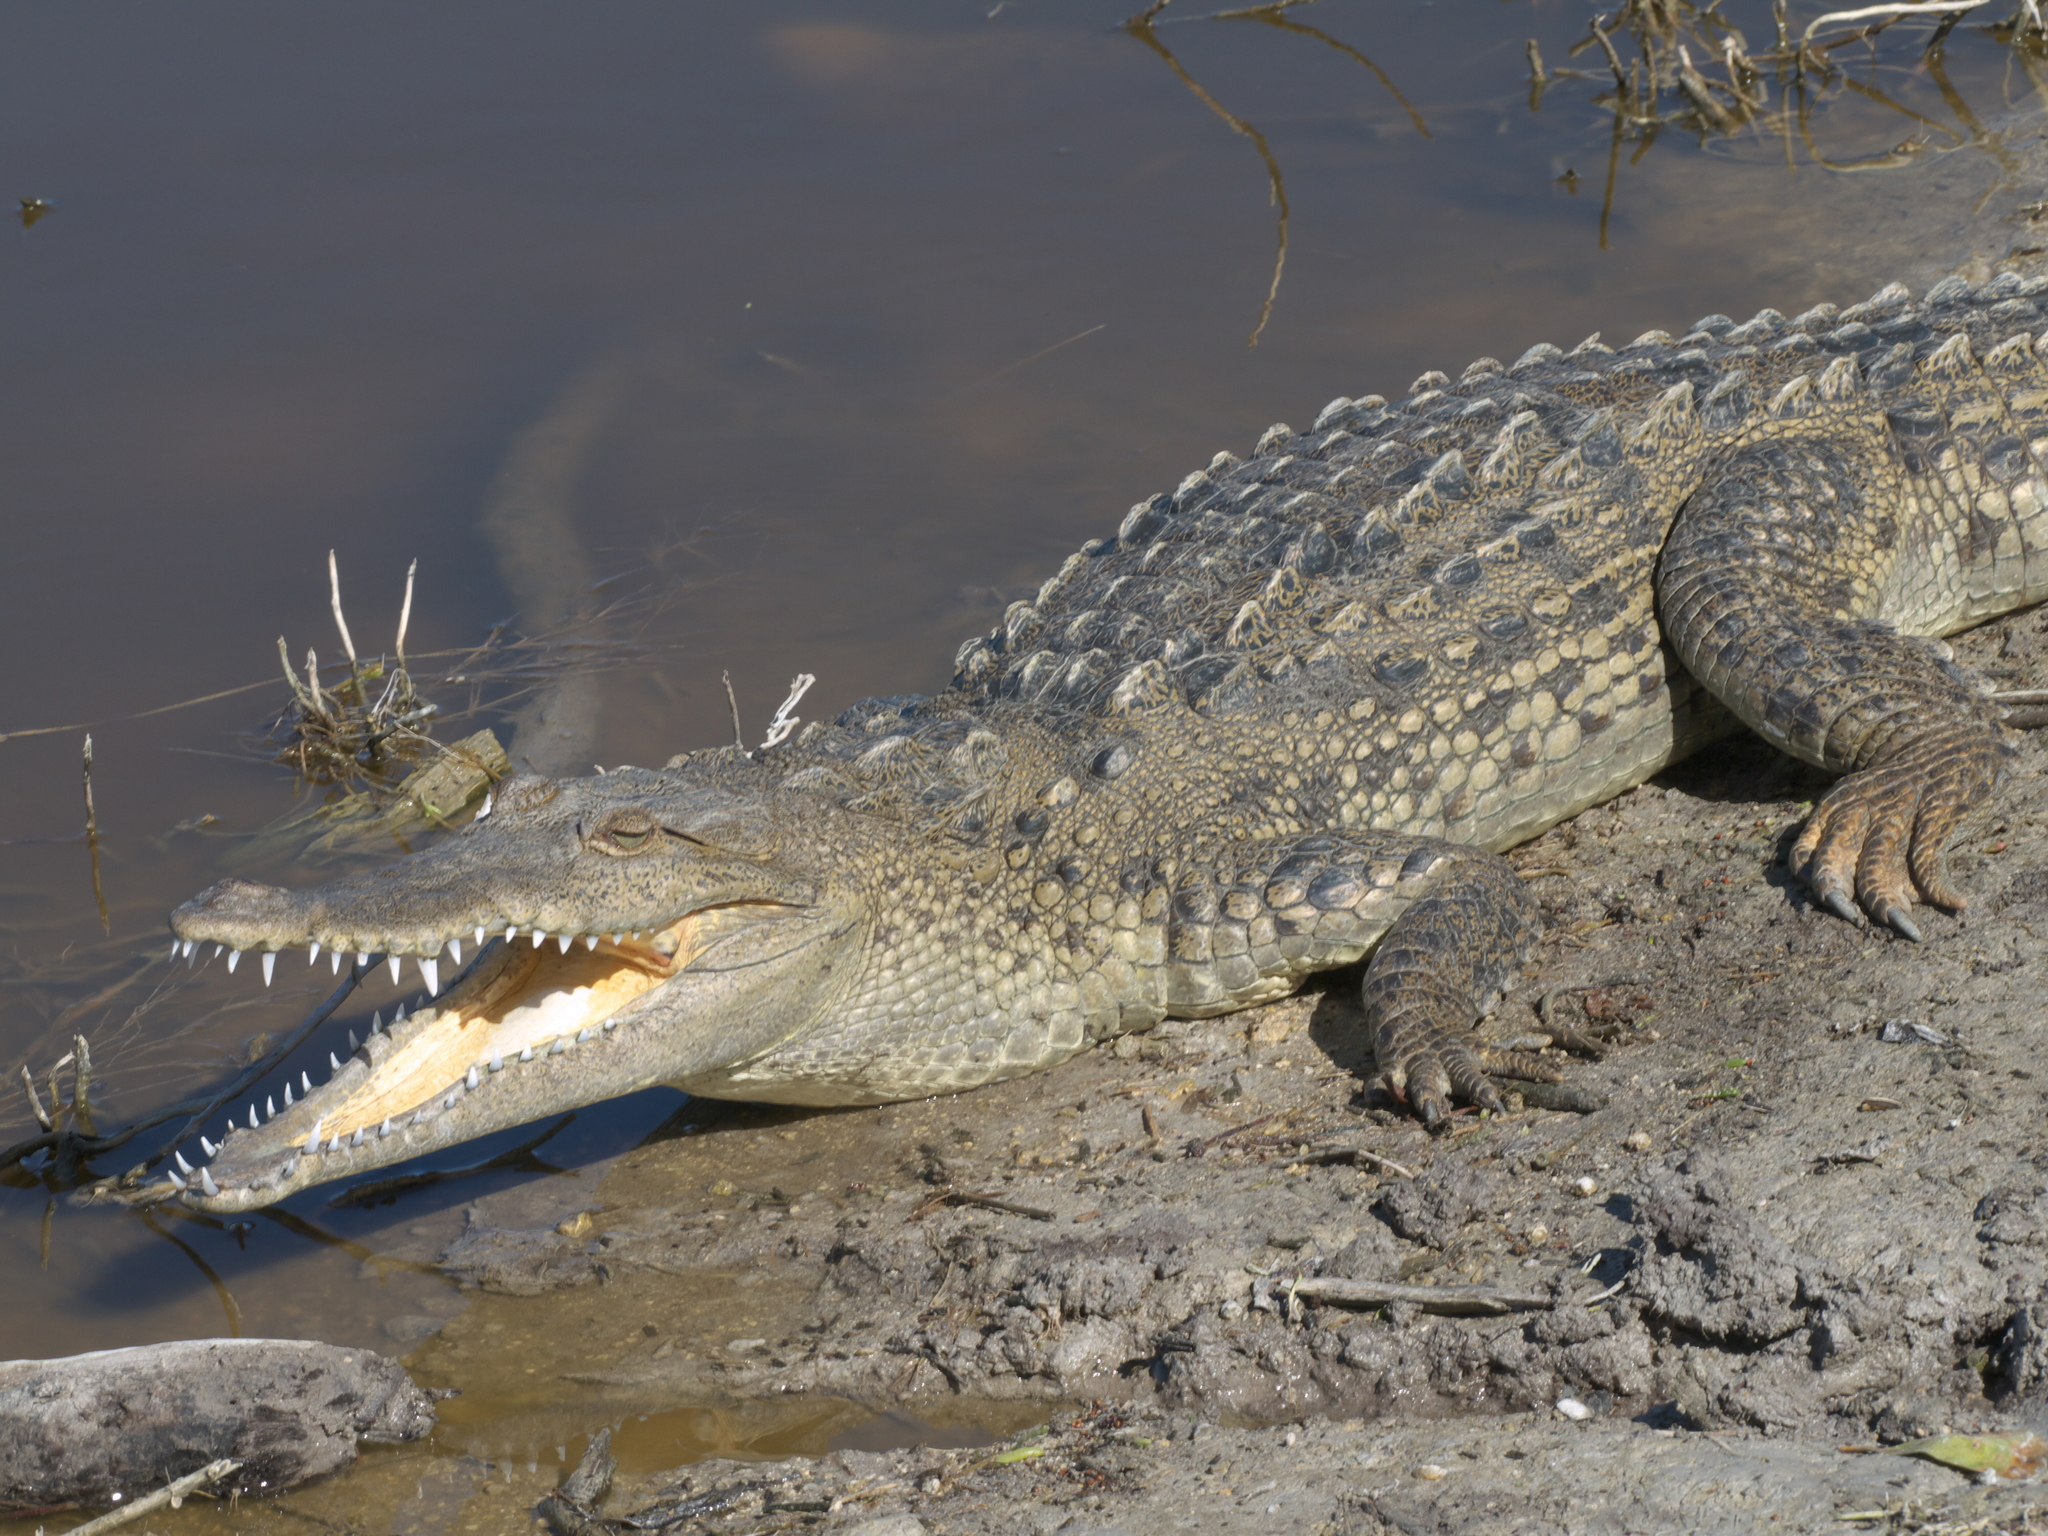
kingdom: Animalia
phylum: Chordata
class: Crocodylia
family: Crocodylidae
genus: Crocodylus
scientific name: Crocodylus acutus
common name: American crocodile
